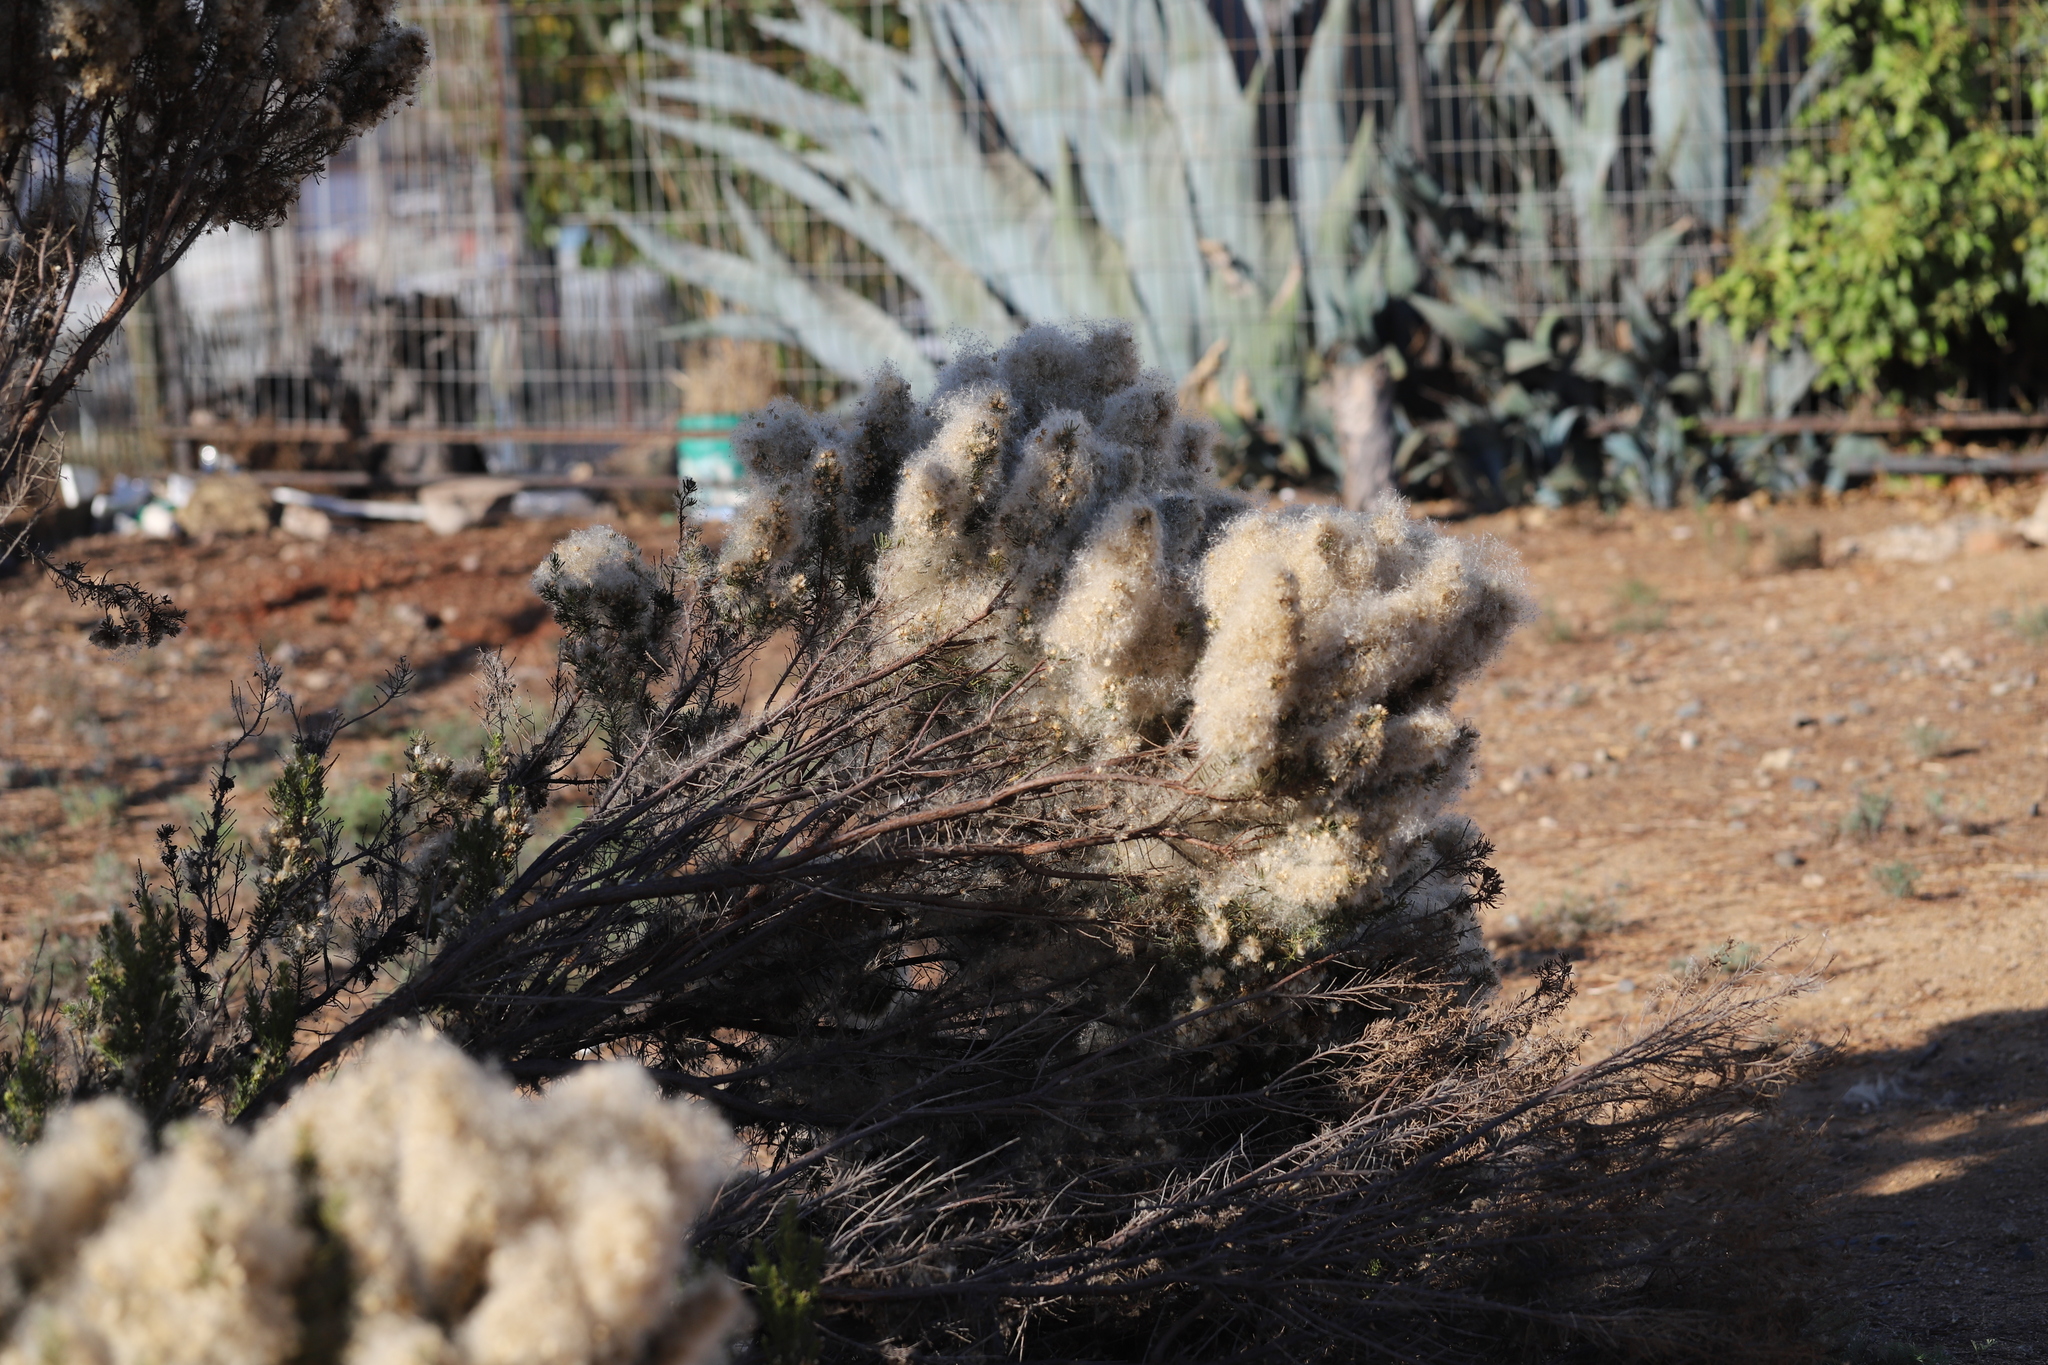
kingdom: Plantae
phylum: Tracheophyta
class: Magnoliopsida
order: Asterales
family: Asteraceae
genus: Baccharis
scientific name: Baccharis linearis
